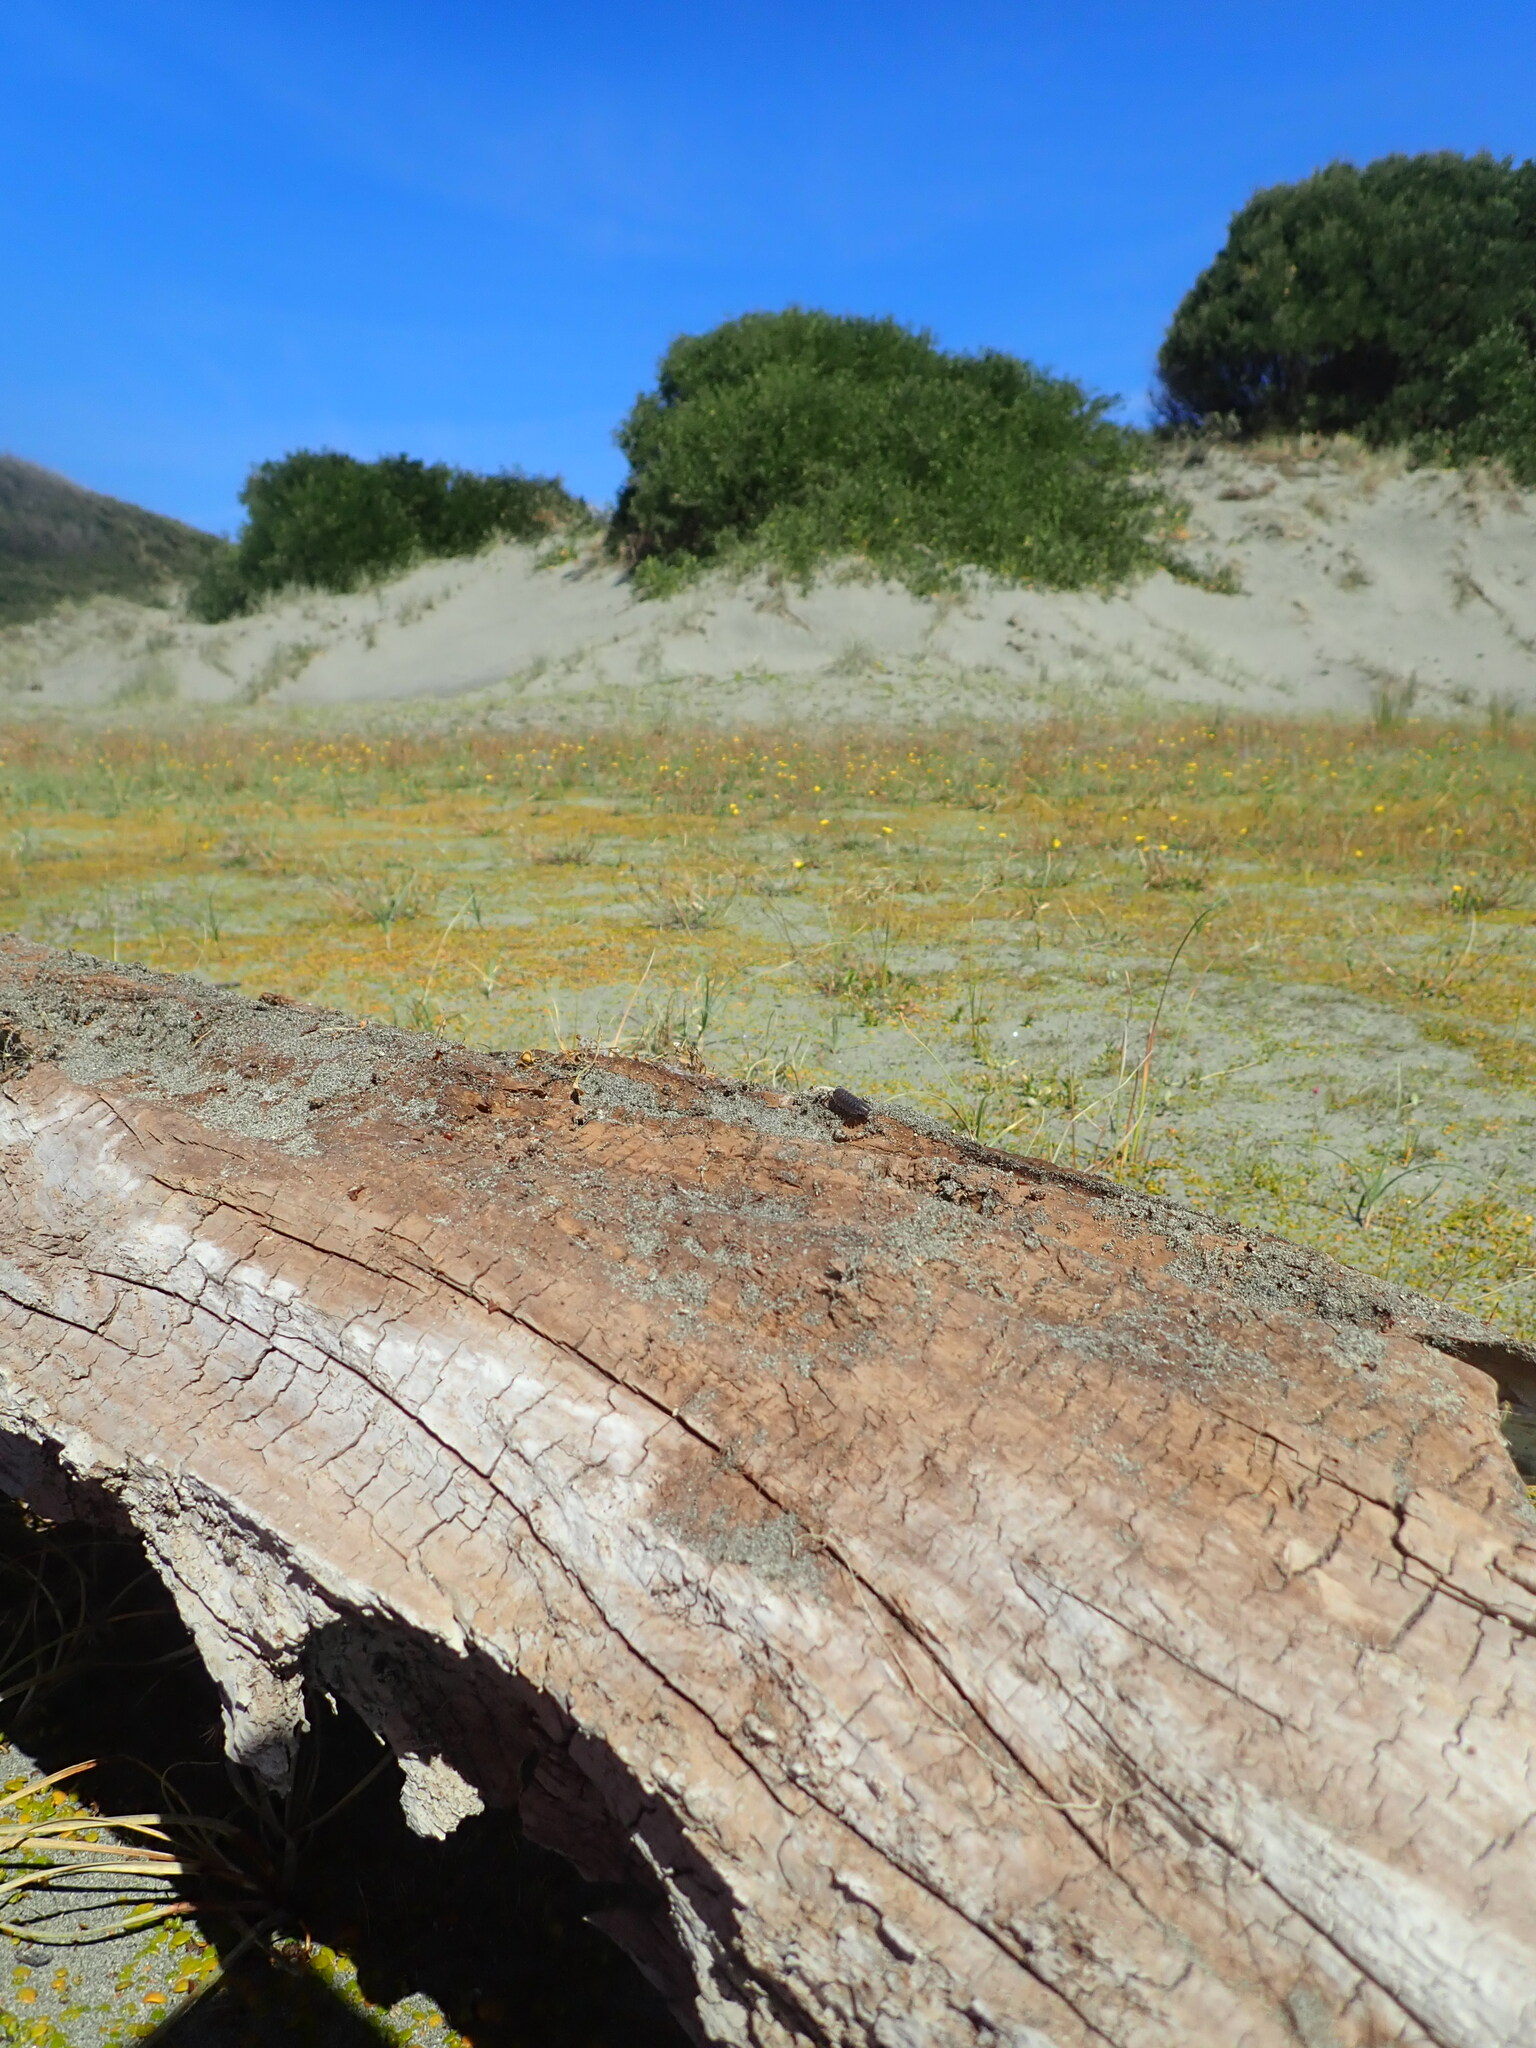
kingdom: Animalia
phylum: Arthropoda
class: Arachnida
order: Araneae
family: Theridiidae
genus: Steatoda
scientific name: Steatoda capensis
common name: Cobweb weaver
